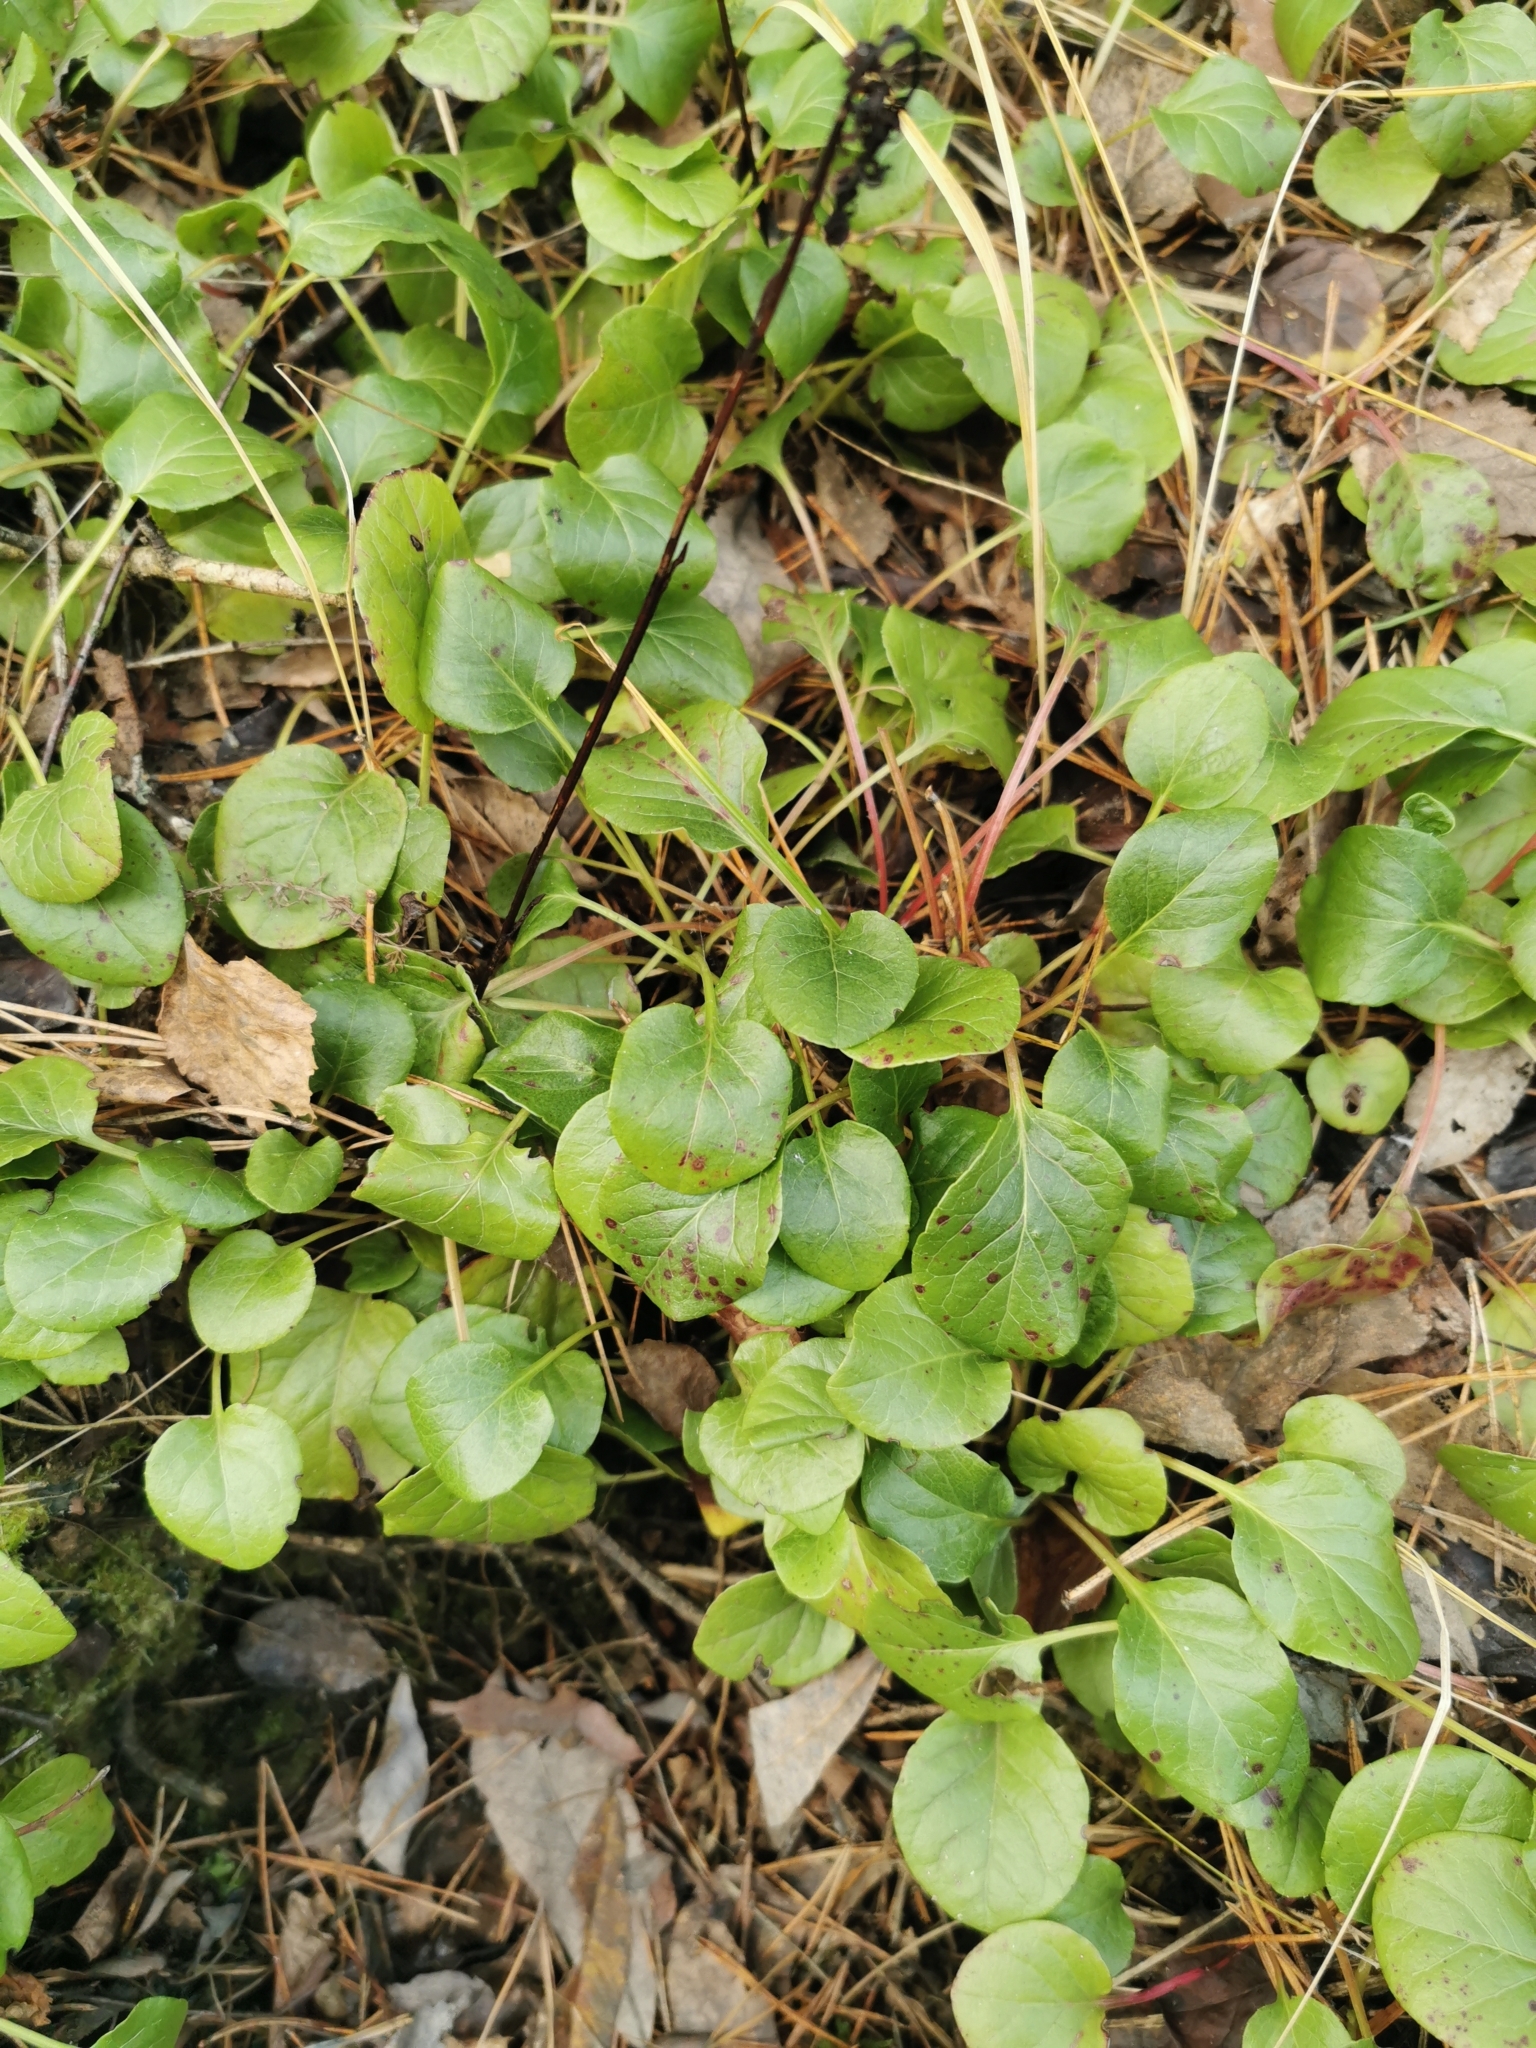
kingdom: Plantae
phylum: Tracheophyta
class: Magnoliopsida
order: Ericales
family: Ericaceae
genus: Pyrola
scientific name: Pyrola rotundifolia
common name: Round-leaved wintergreen
